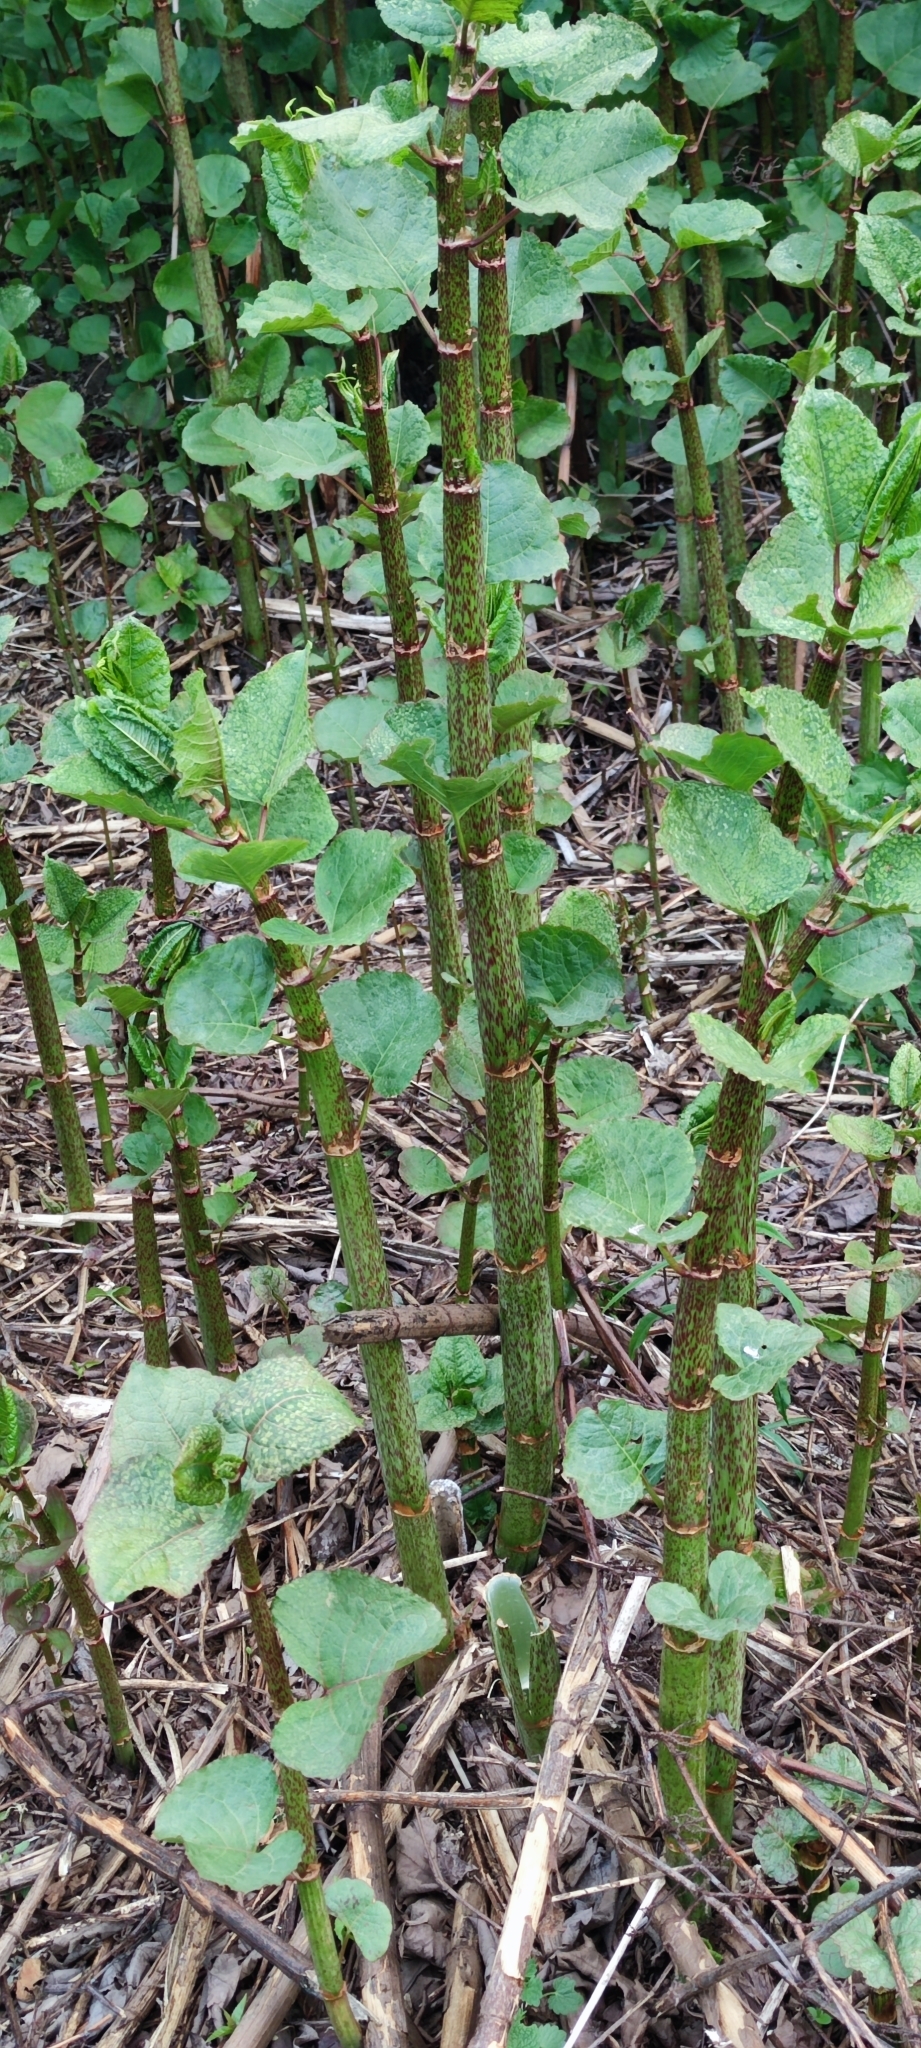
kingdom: Plantae
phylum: Tracheophyta
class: Magnoliopsida
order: Caryophyllales
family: Polygonaceae
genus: Reynoutria
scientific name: Reynoutria bohemica
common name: Bohemian knotweed
